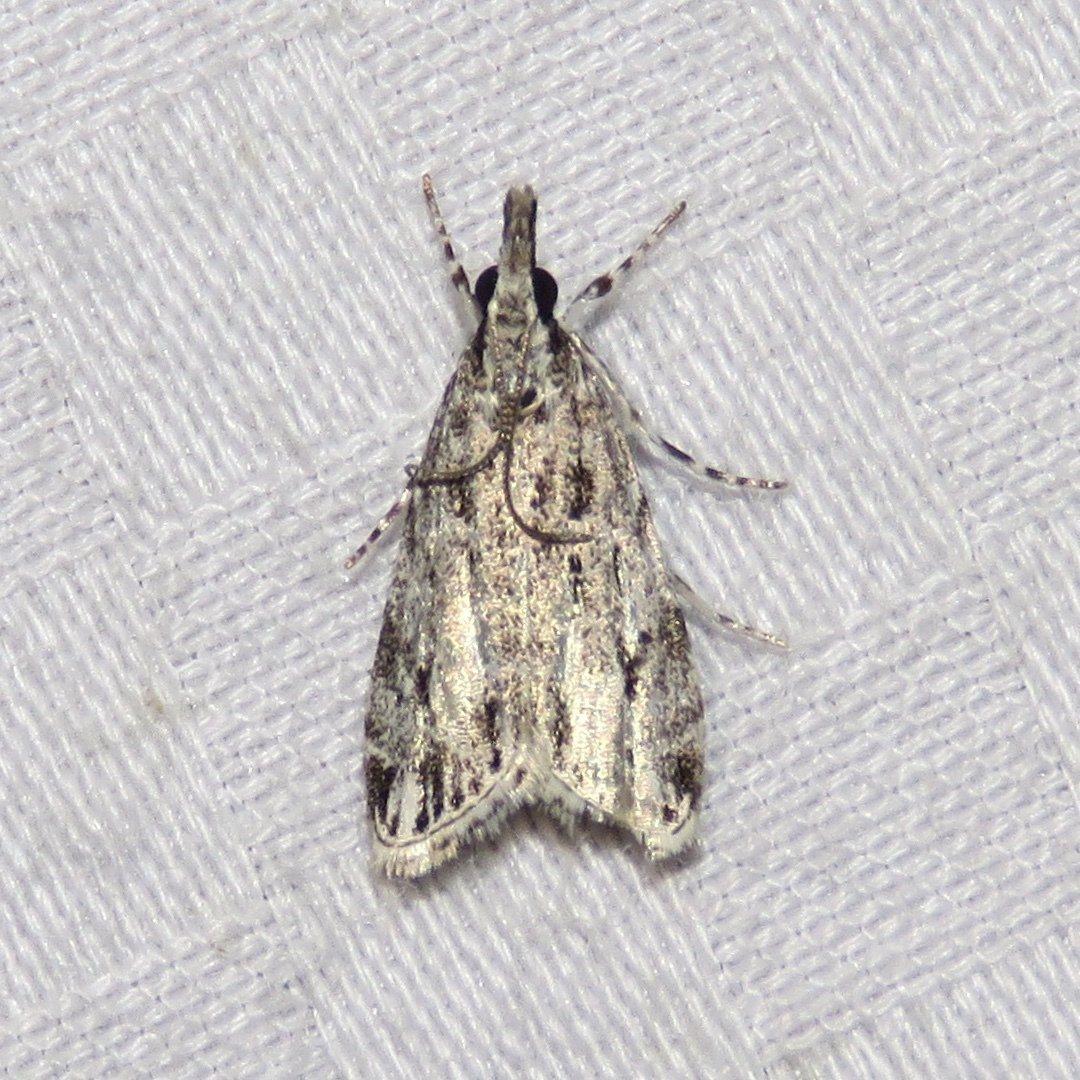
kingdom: Animalia
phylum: Arthropoda
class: Insecta
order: Lepidoptera
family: Crambidae
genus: Eudonia
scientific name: Eudonia strigalis
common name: Striped eudonia moth
